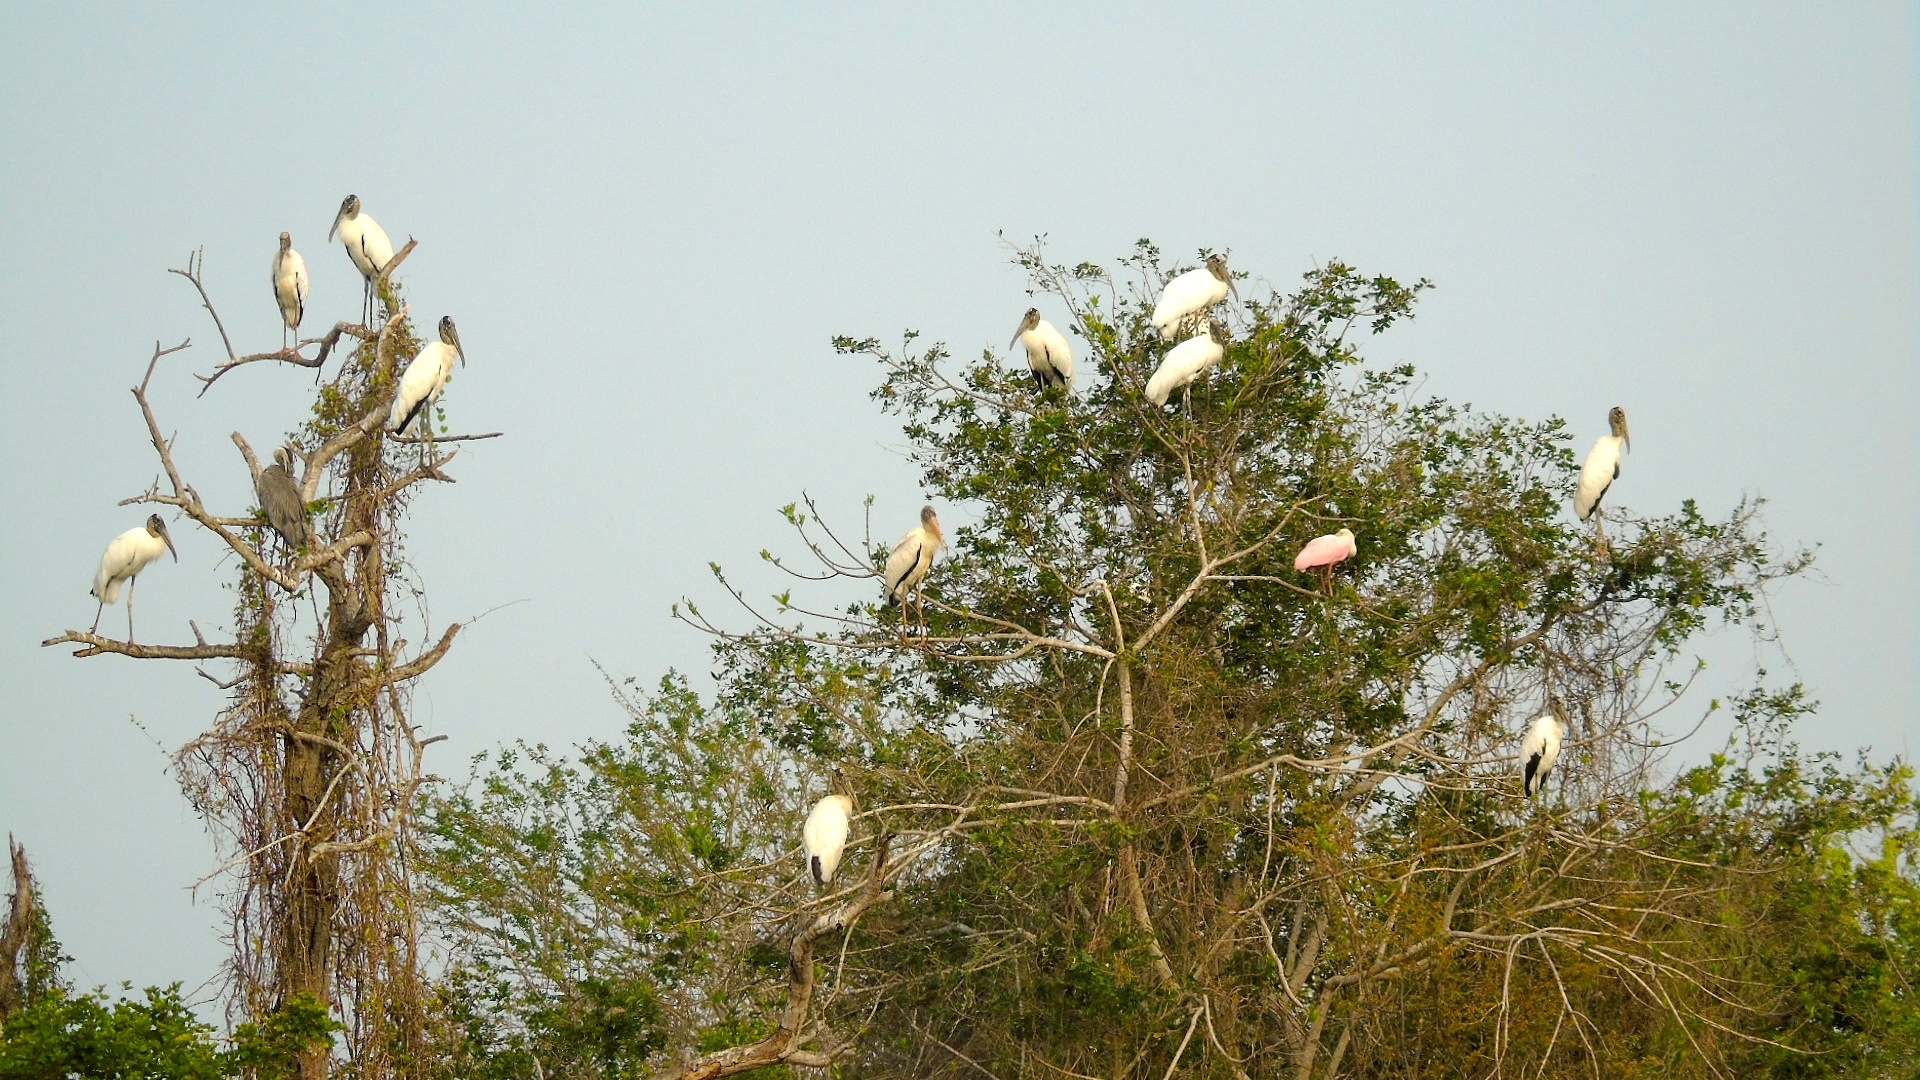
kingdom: Animalia
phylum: Chordata
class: Aves
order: Pelecaniformes
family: Threskiornithidae
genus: Platalea
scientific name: Platalea ajaja
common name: Roseate spoonbill
